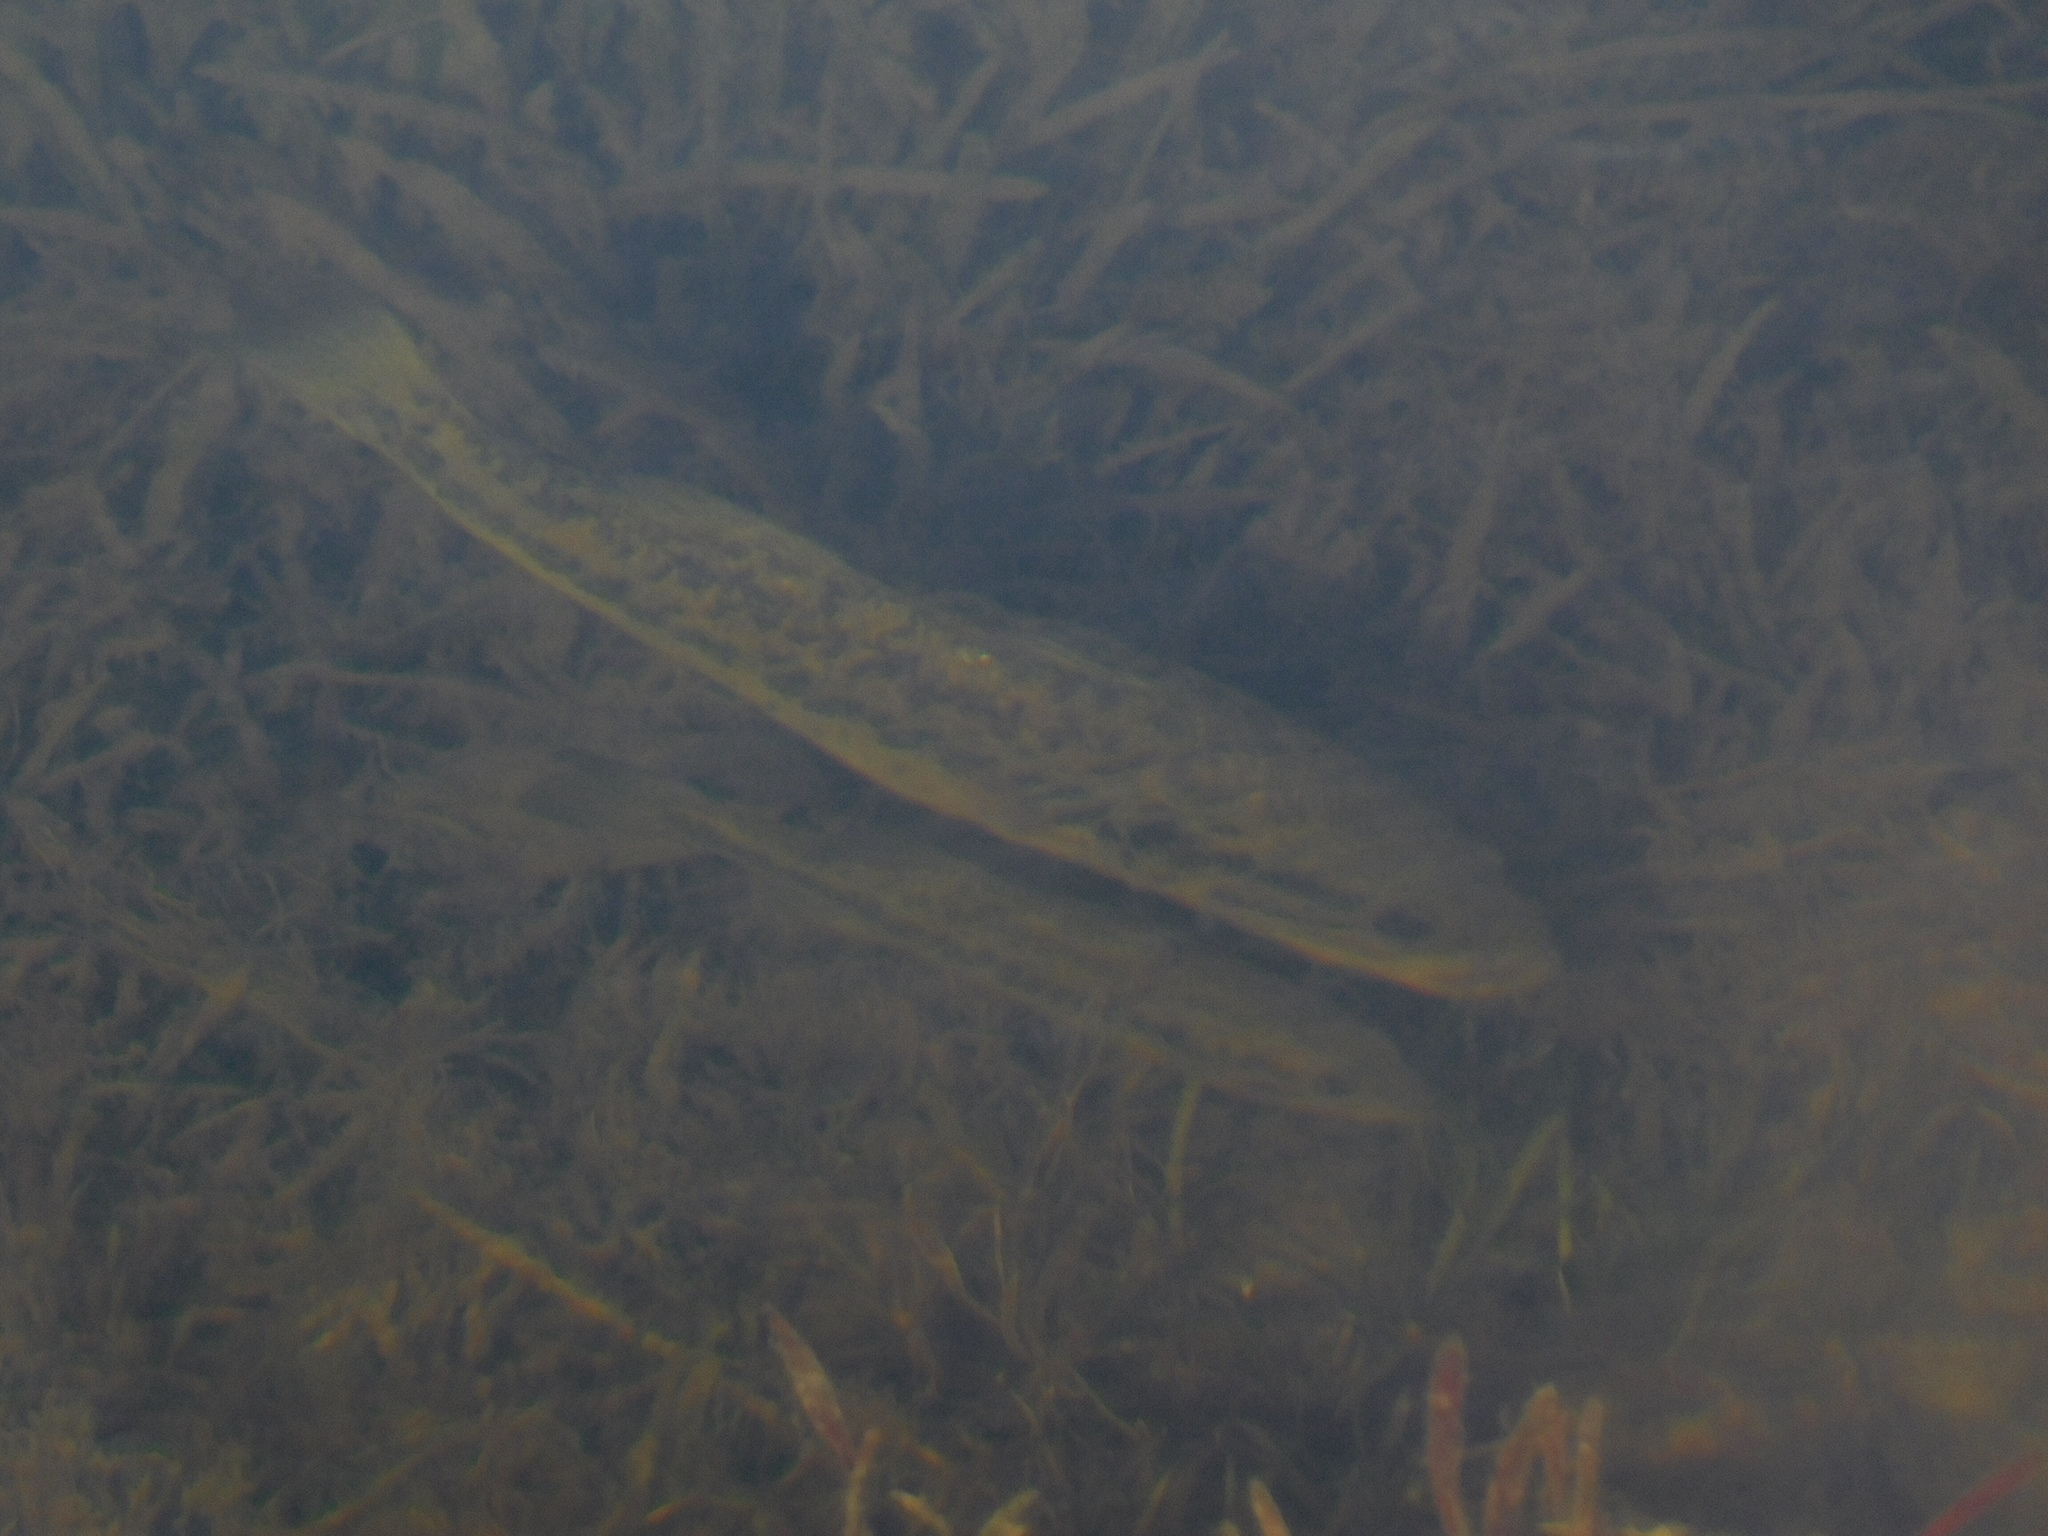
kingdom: Animalia
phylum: Chordata
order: Perciformes
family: Centrarchidae
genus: Micropterus
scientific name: Micropterus salmoides
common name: Largemouth bass
